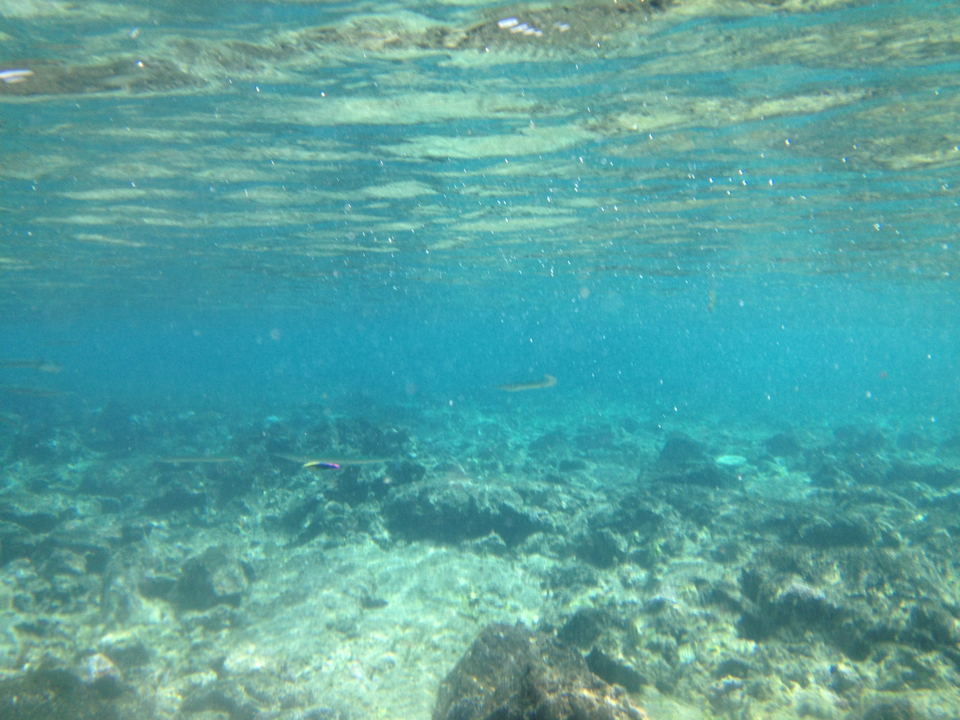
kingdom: Animalia
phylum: Chordata
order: Perciformes
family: Labridae
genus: Labroides
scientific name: Labroides phthirophagus
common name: Cleaner wrasse
